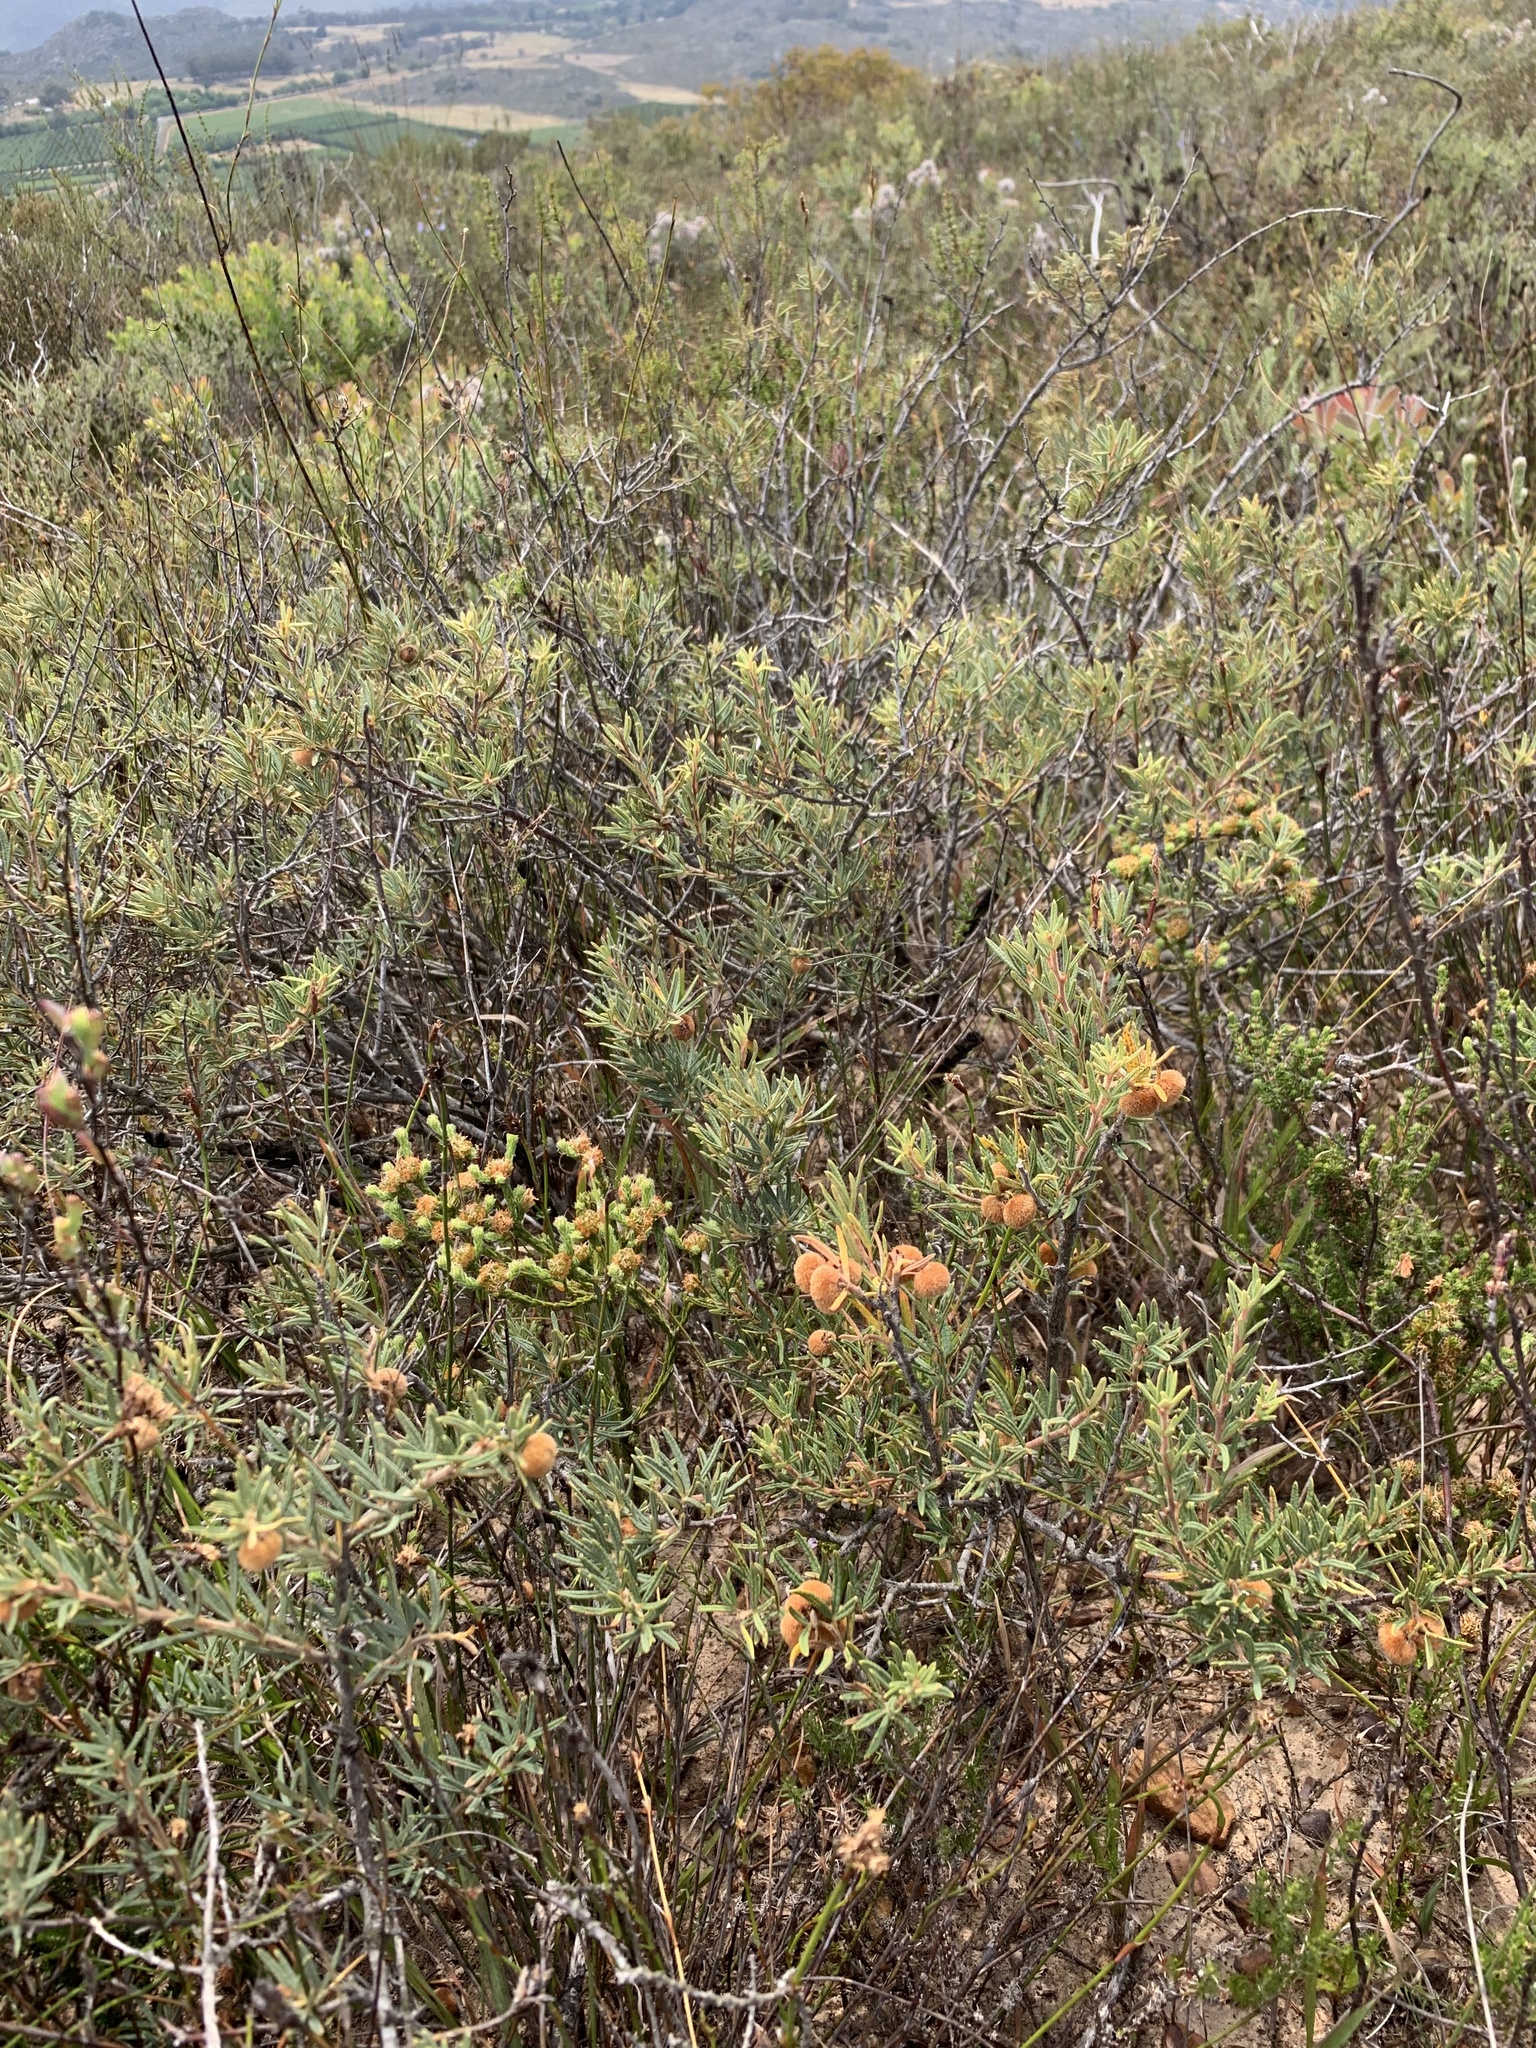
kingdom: Plantae
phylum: Tracheophyta
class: Magnoliopsida
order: Sapindales
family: Anacardiaceae
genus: Searsia
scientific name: Searsia rosmarinifolia
